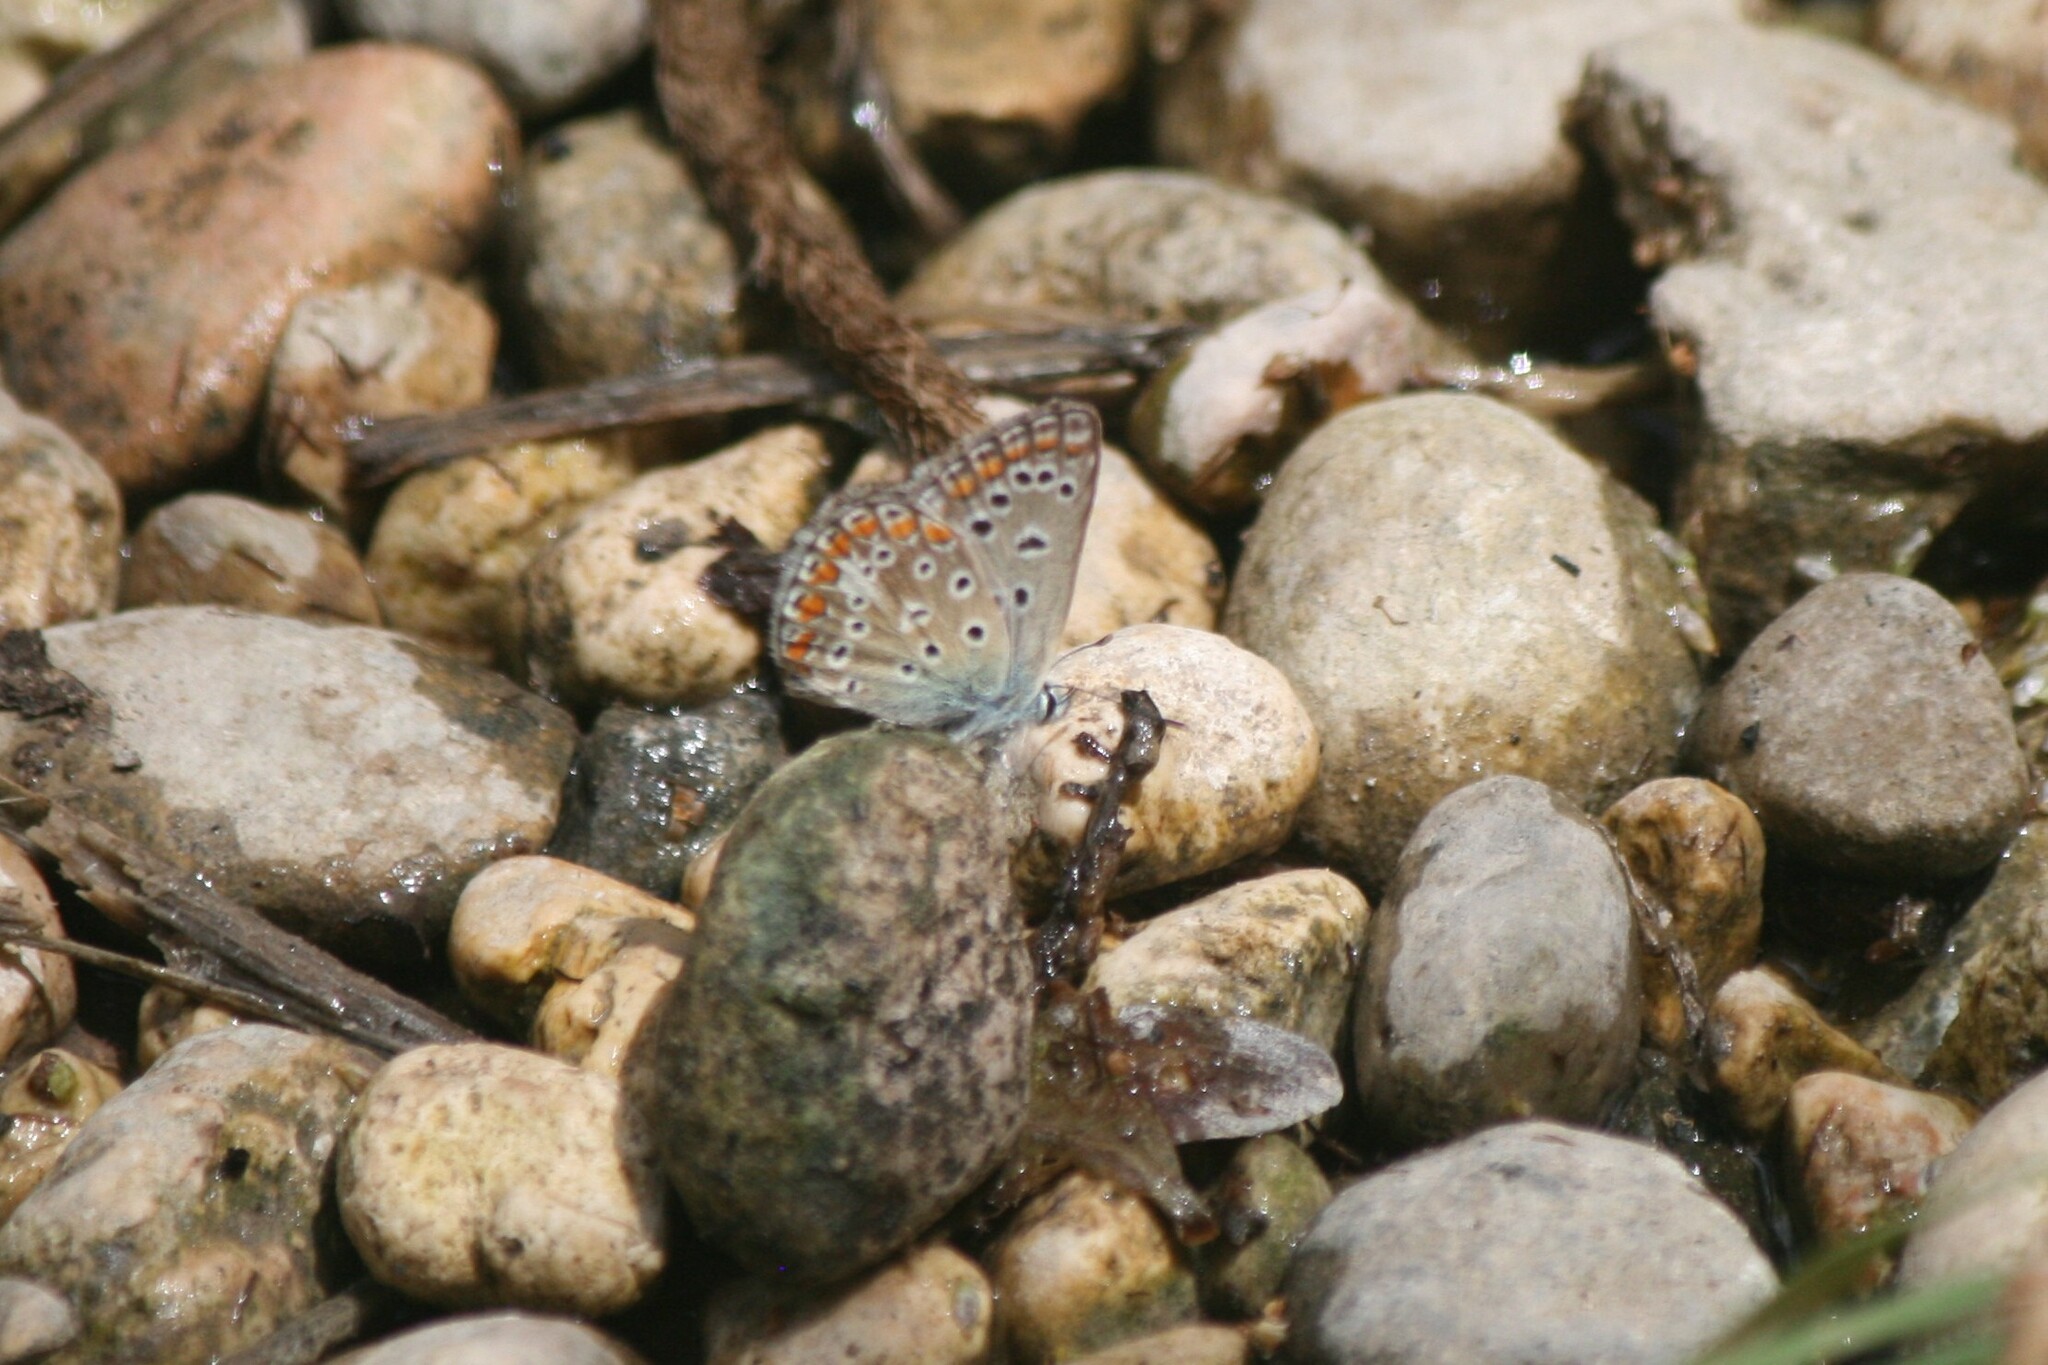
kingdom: Animalia
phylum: Arthropoda
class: Insecta
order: Lepidoptera
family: Lycaenidae
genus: Polyommatus
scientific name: Polyommatus celina
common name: Austaut's blue
